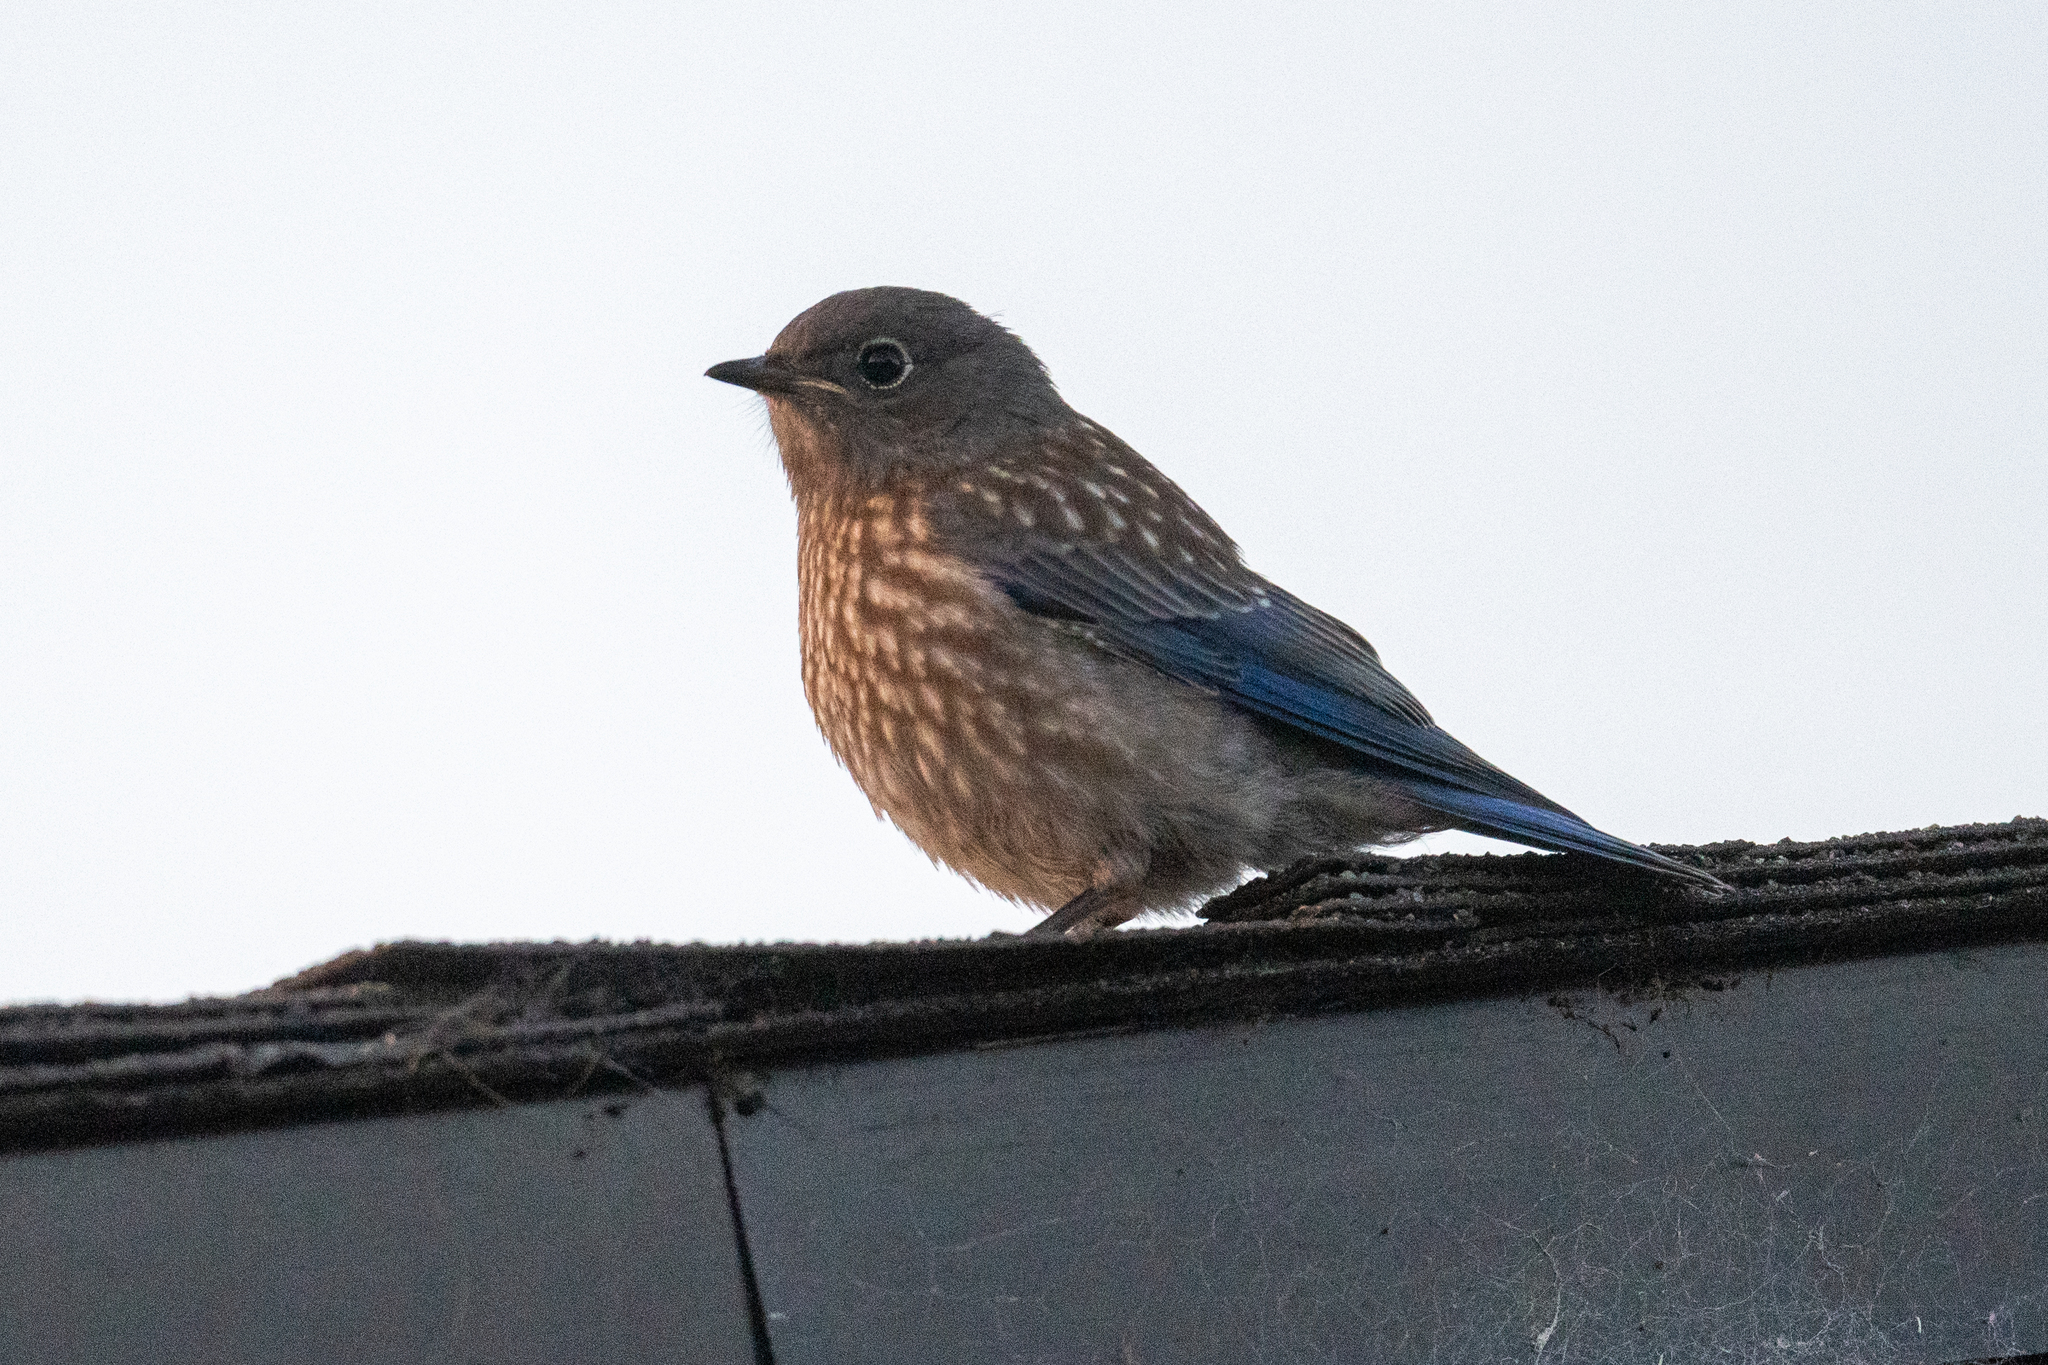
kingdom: Animalia
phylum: Chordata
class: Aves
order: Passeriformes
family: Turdidae
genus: Sialia
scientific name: Sialia mexicana
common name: Western bluebird
